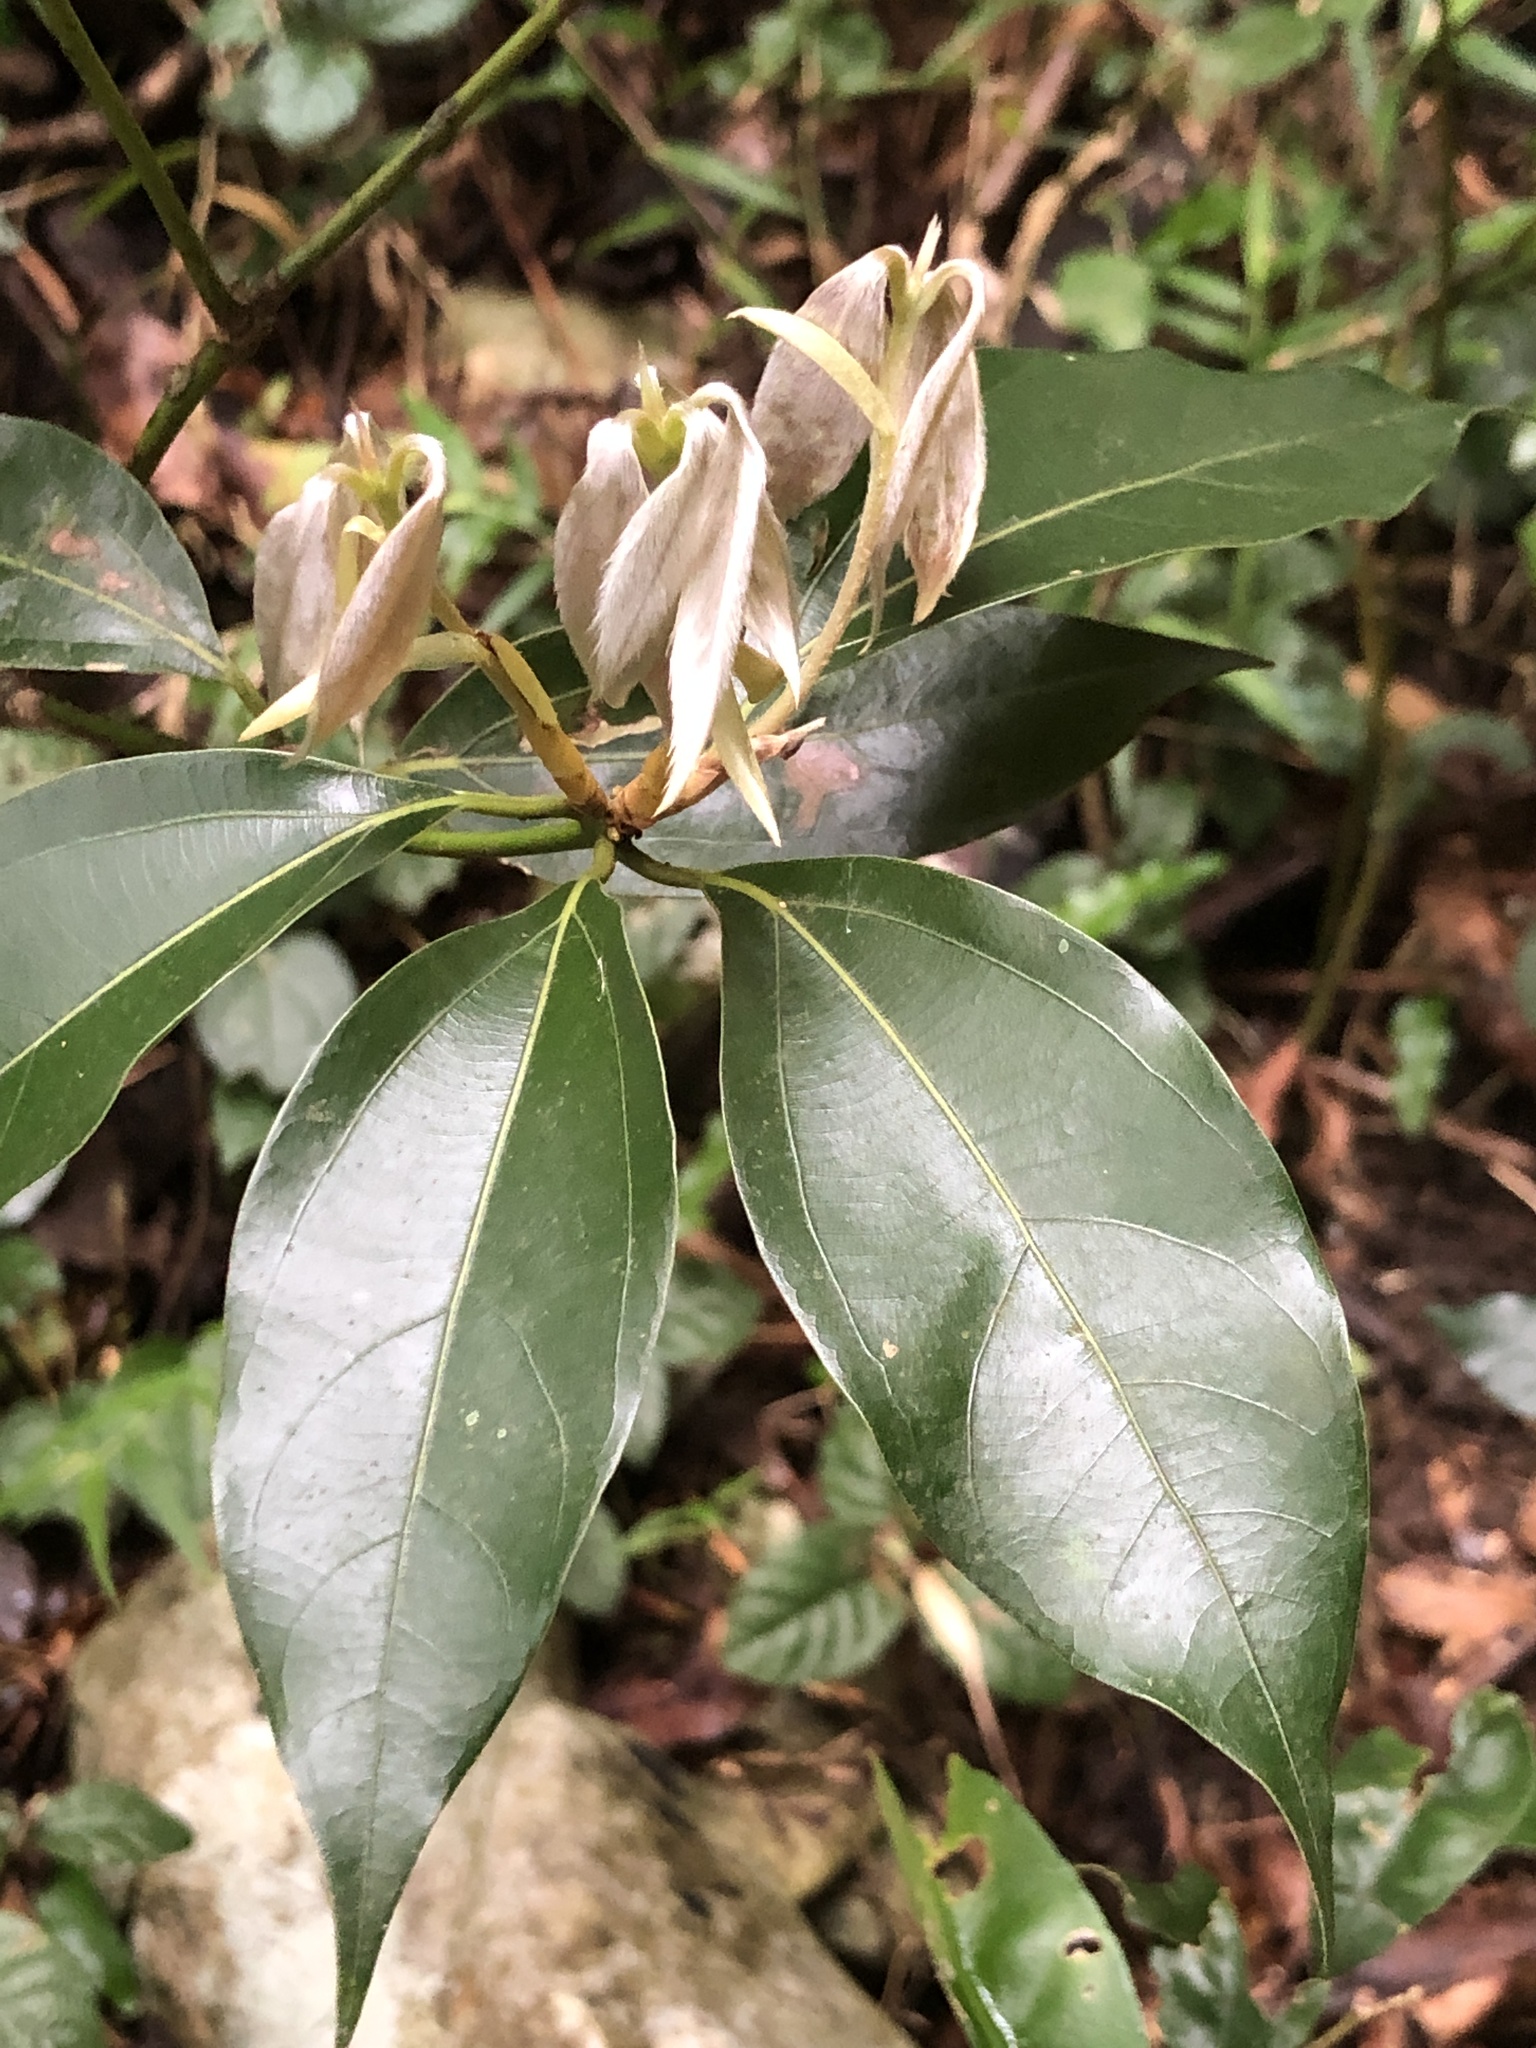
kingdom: Plantae
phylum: Tracheophyta
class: Magnoliopsida
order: Laurales
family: Lauraceae
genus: Neolitsea
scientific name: Neolitsea sericea
